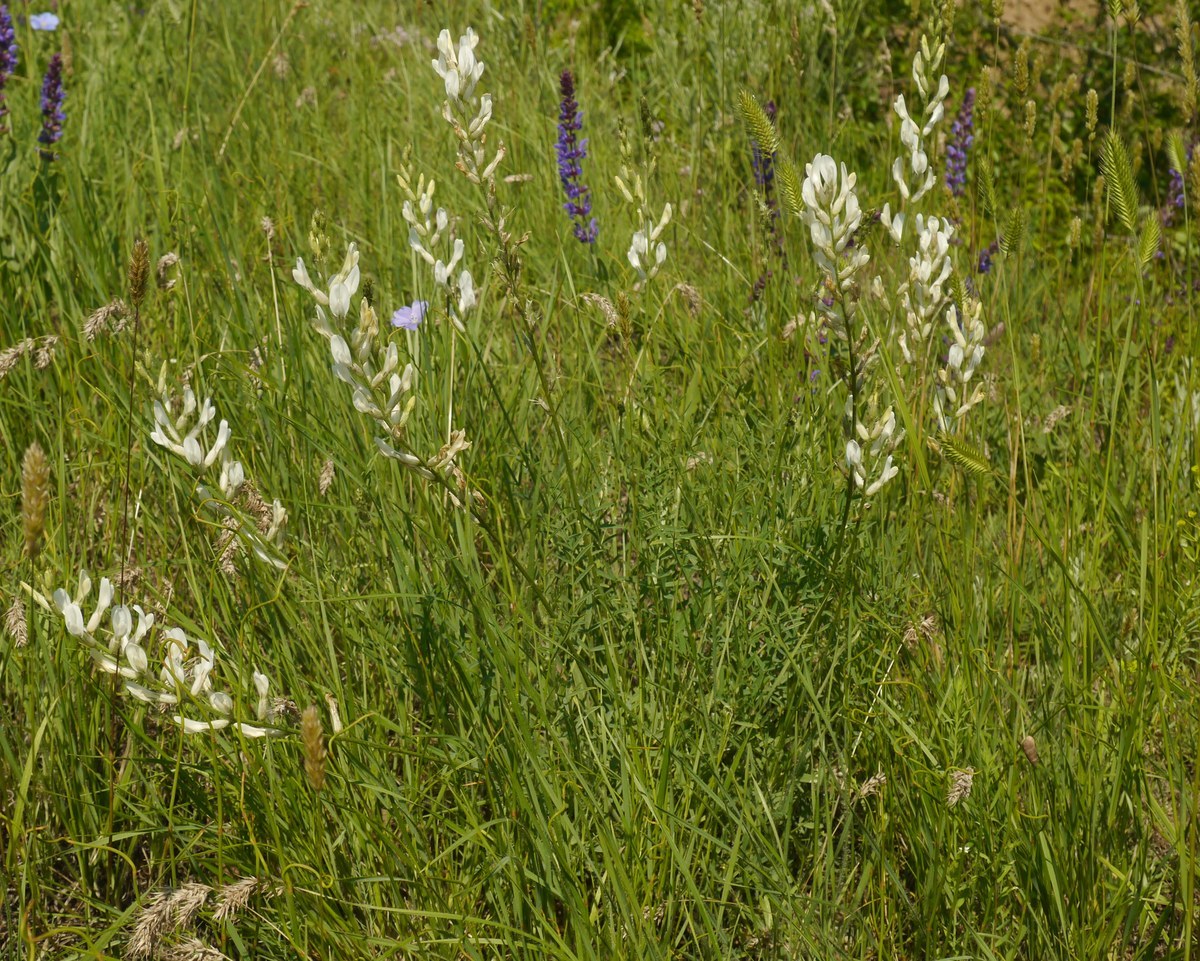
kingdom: Plantae
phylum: Tracheophyta
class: Magnoliopsida
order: Fabales
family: Fabaceae
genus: Astragalus
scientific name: Astragalus pallescens
